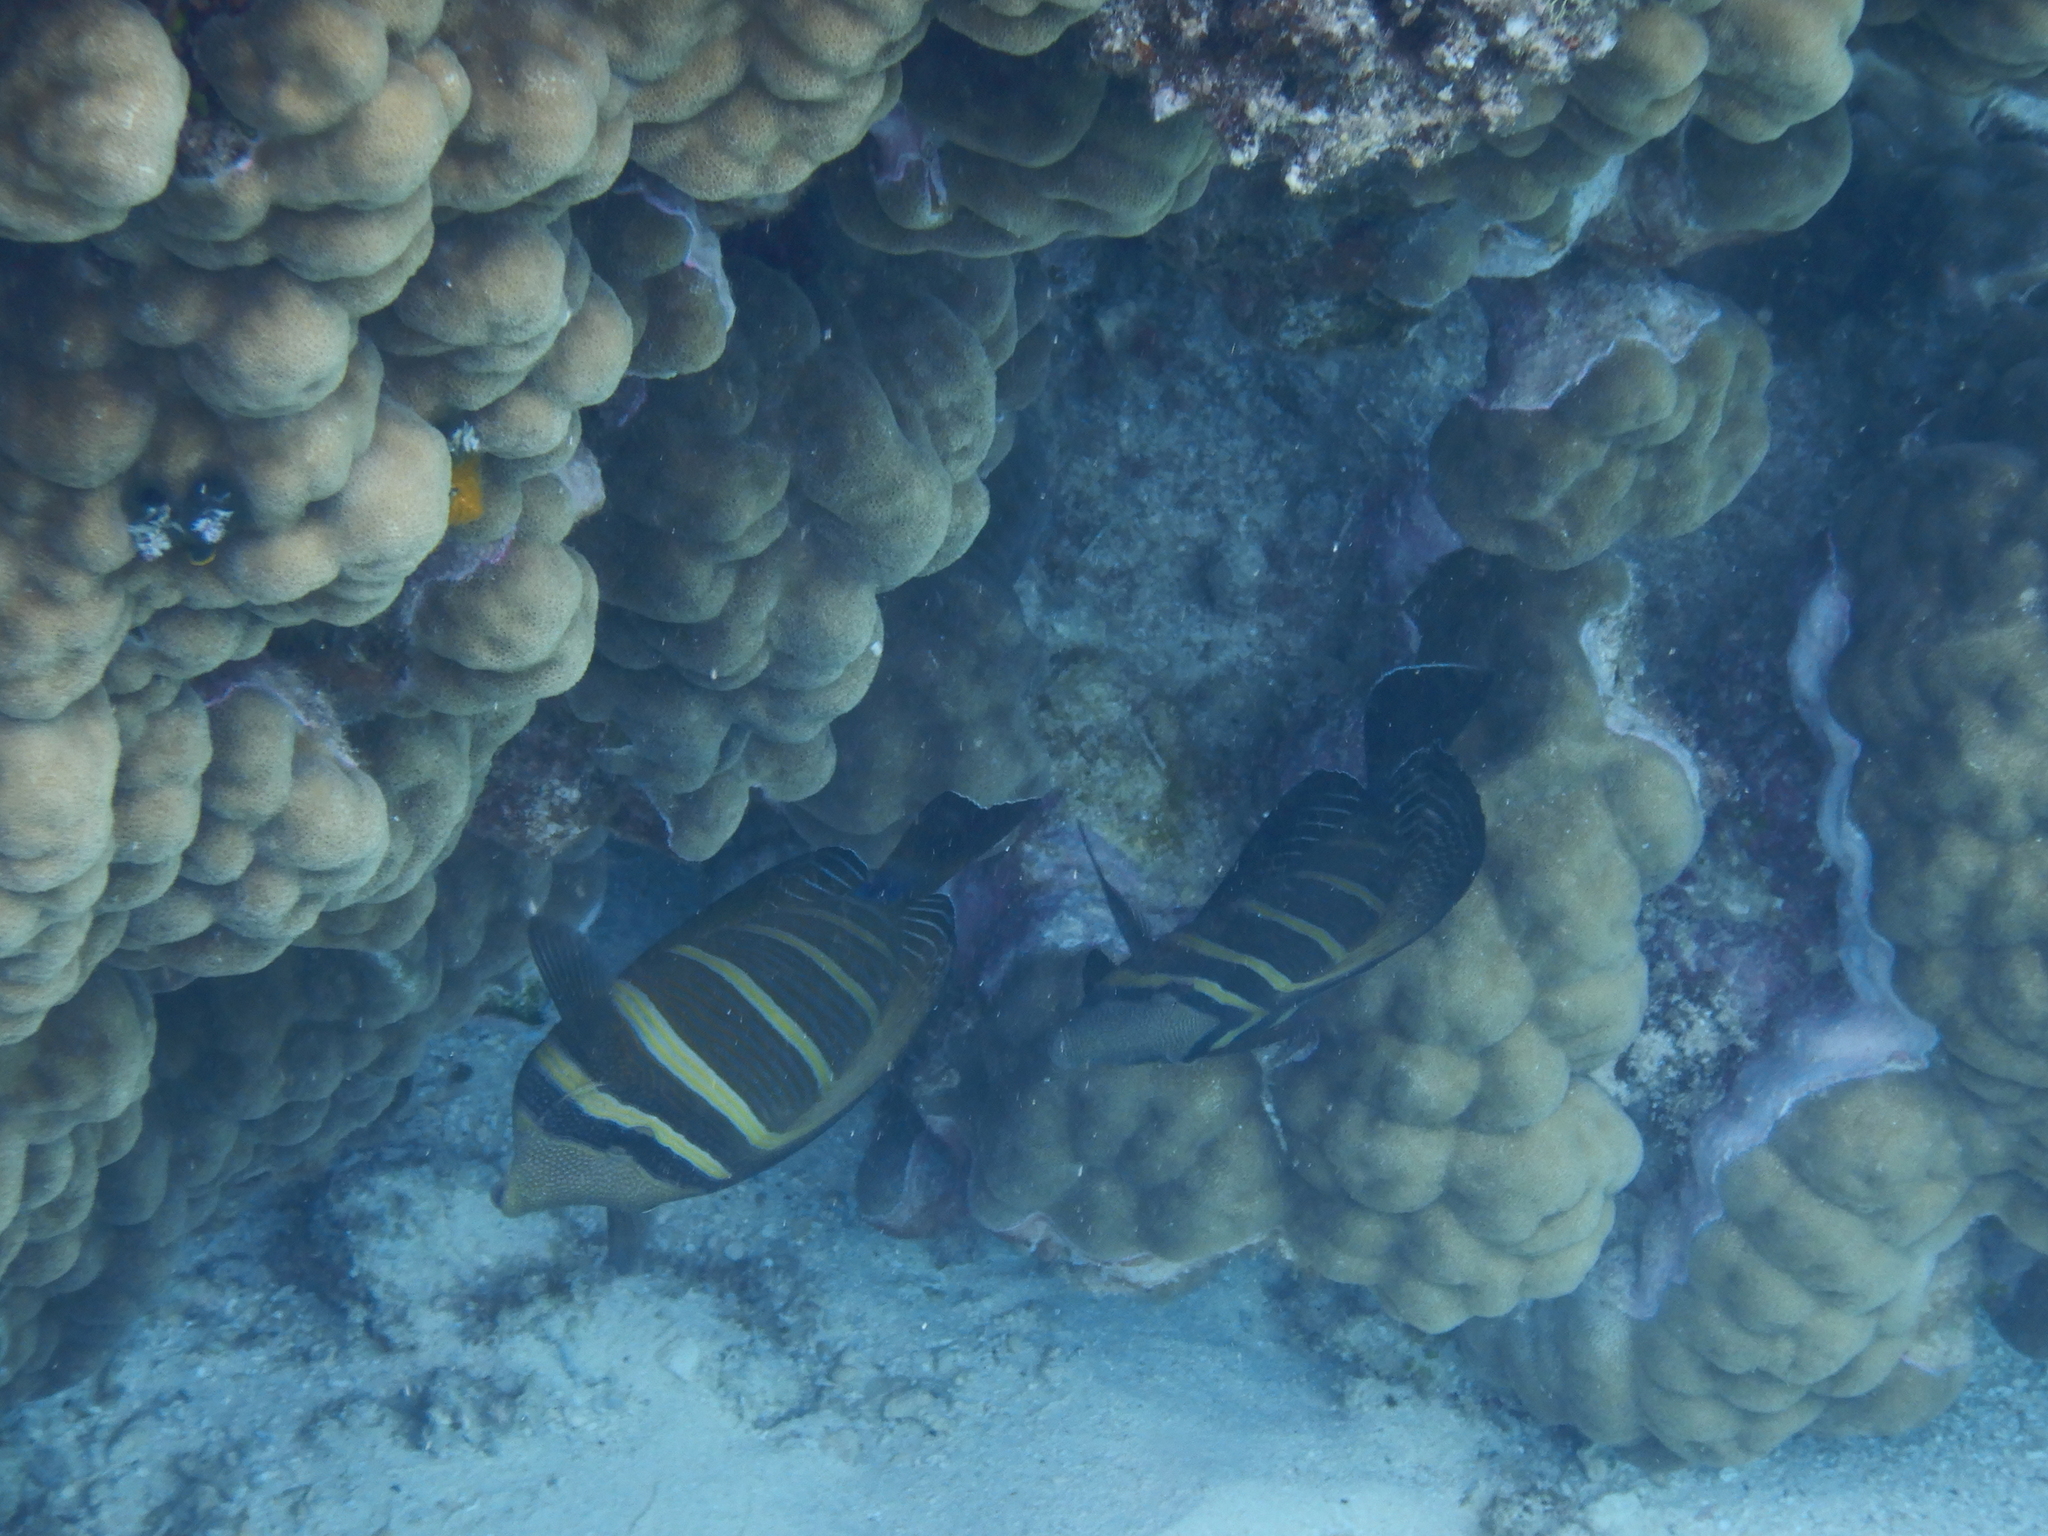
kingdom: Animalia
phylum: Chordata
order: Perciformes
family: Acanthuridae
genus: Zebrasoma
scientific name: Zebrasoma veliferum
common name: Sailfin surgeonfish
